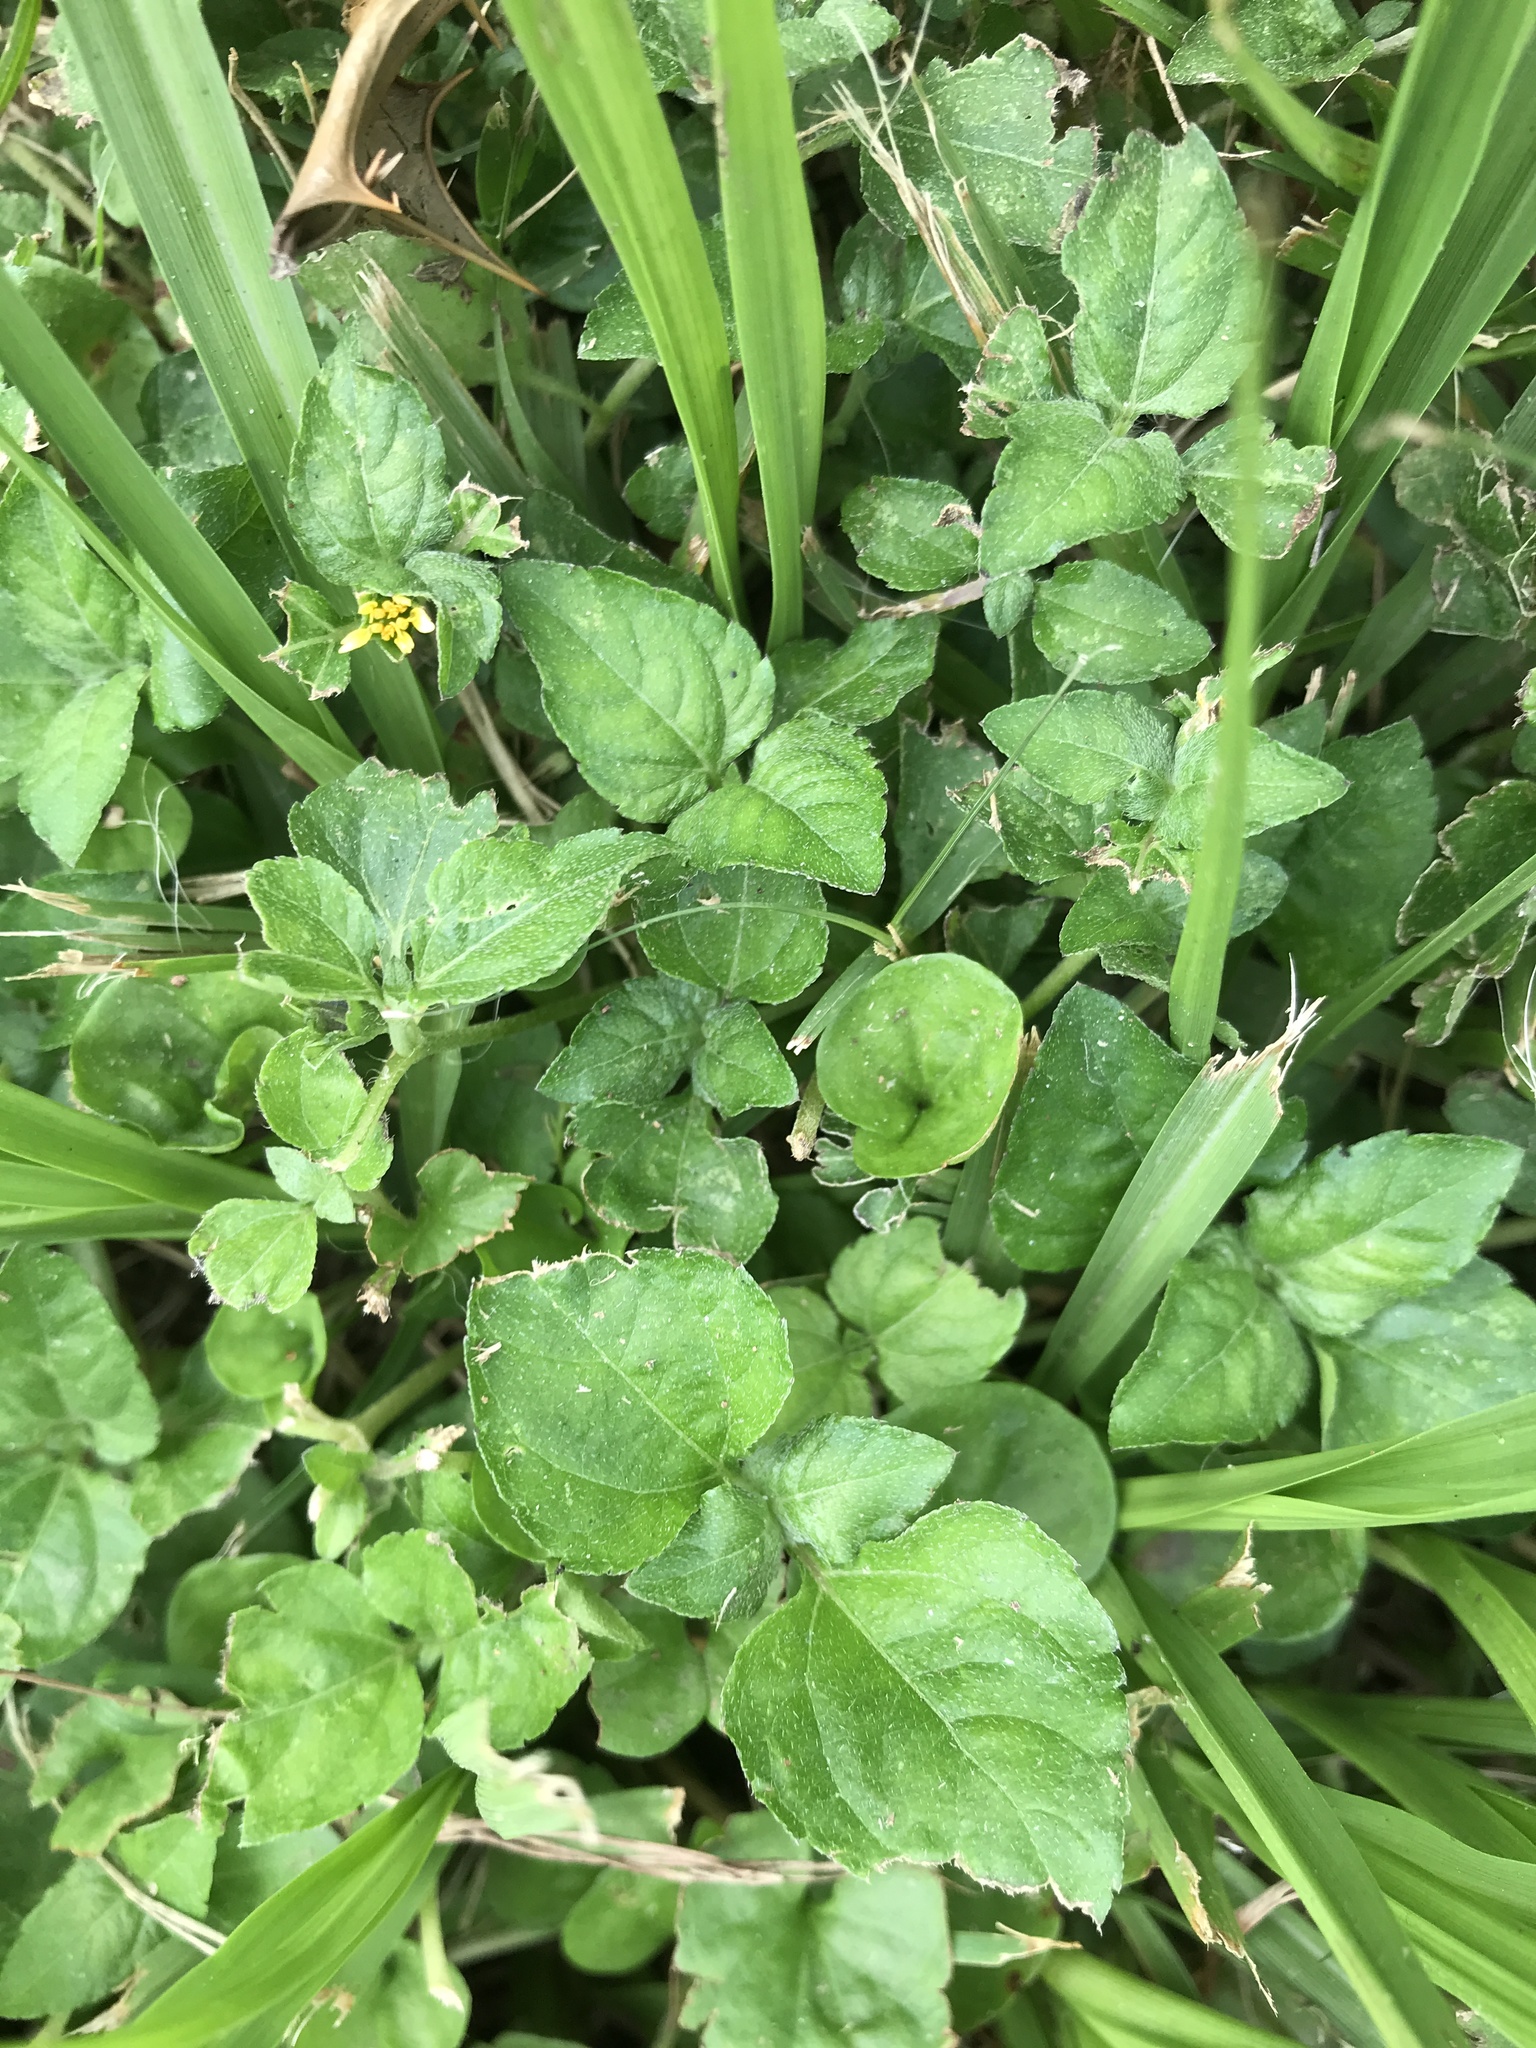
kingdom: Plantae
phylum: Tracheophyta
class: Magnoliopsida
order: Asterales
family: Asteraceae
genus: Calyptocarpus
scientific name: Calyptocarpus vialis
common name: Straggler daisy
